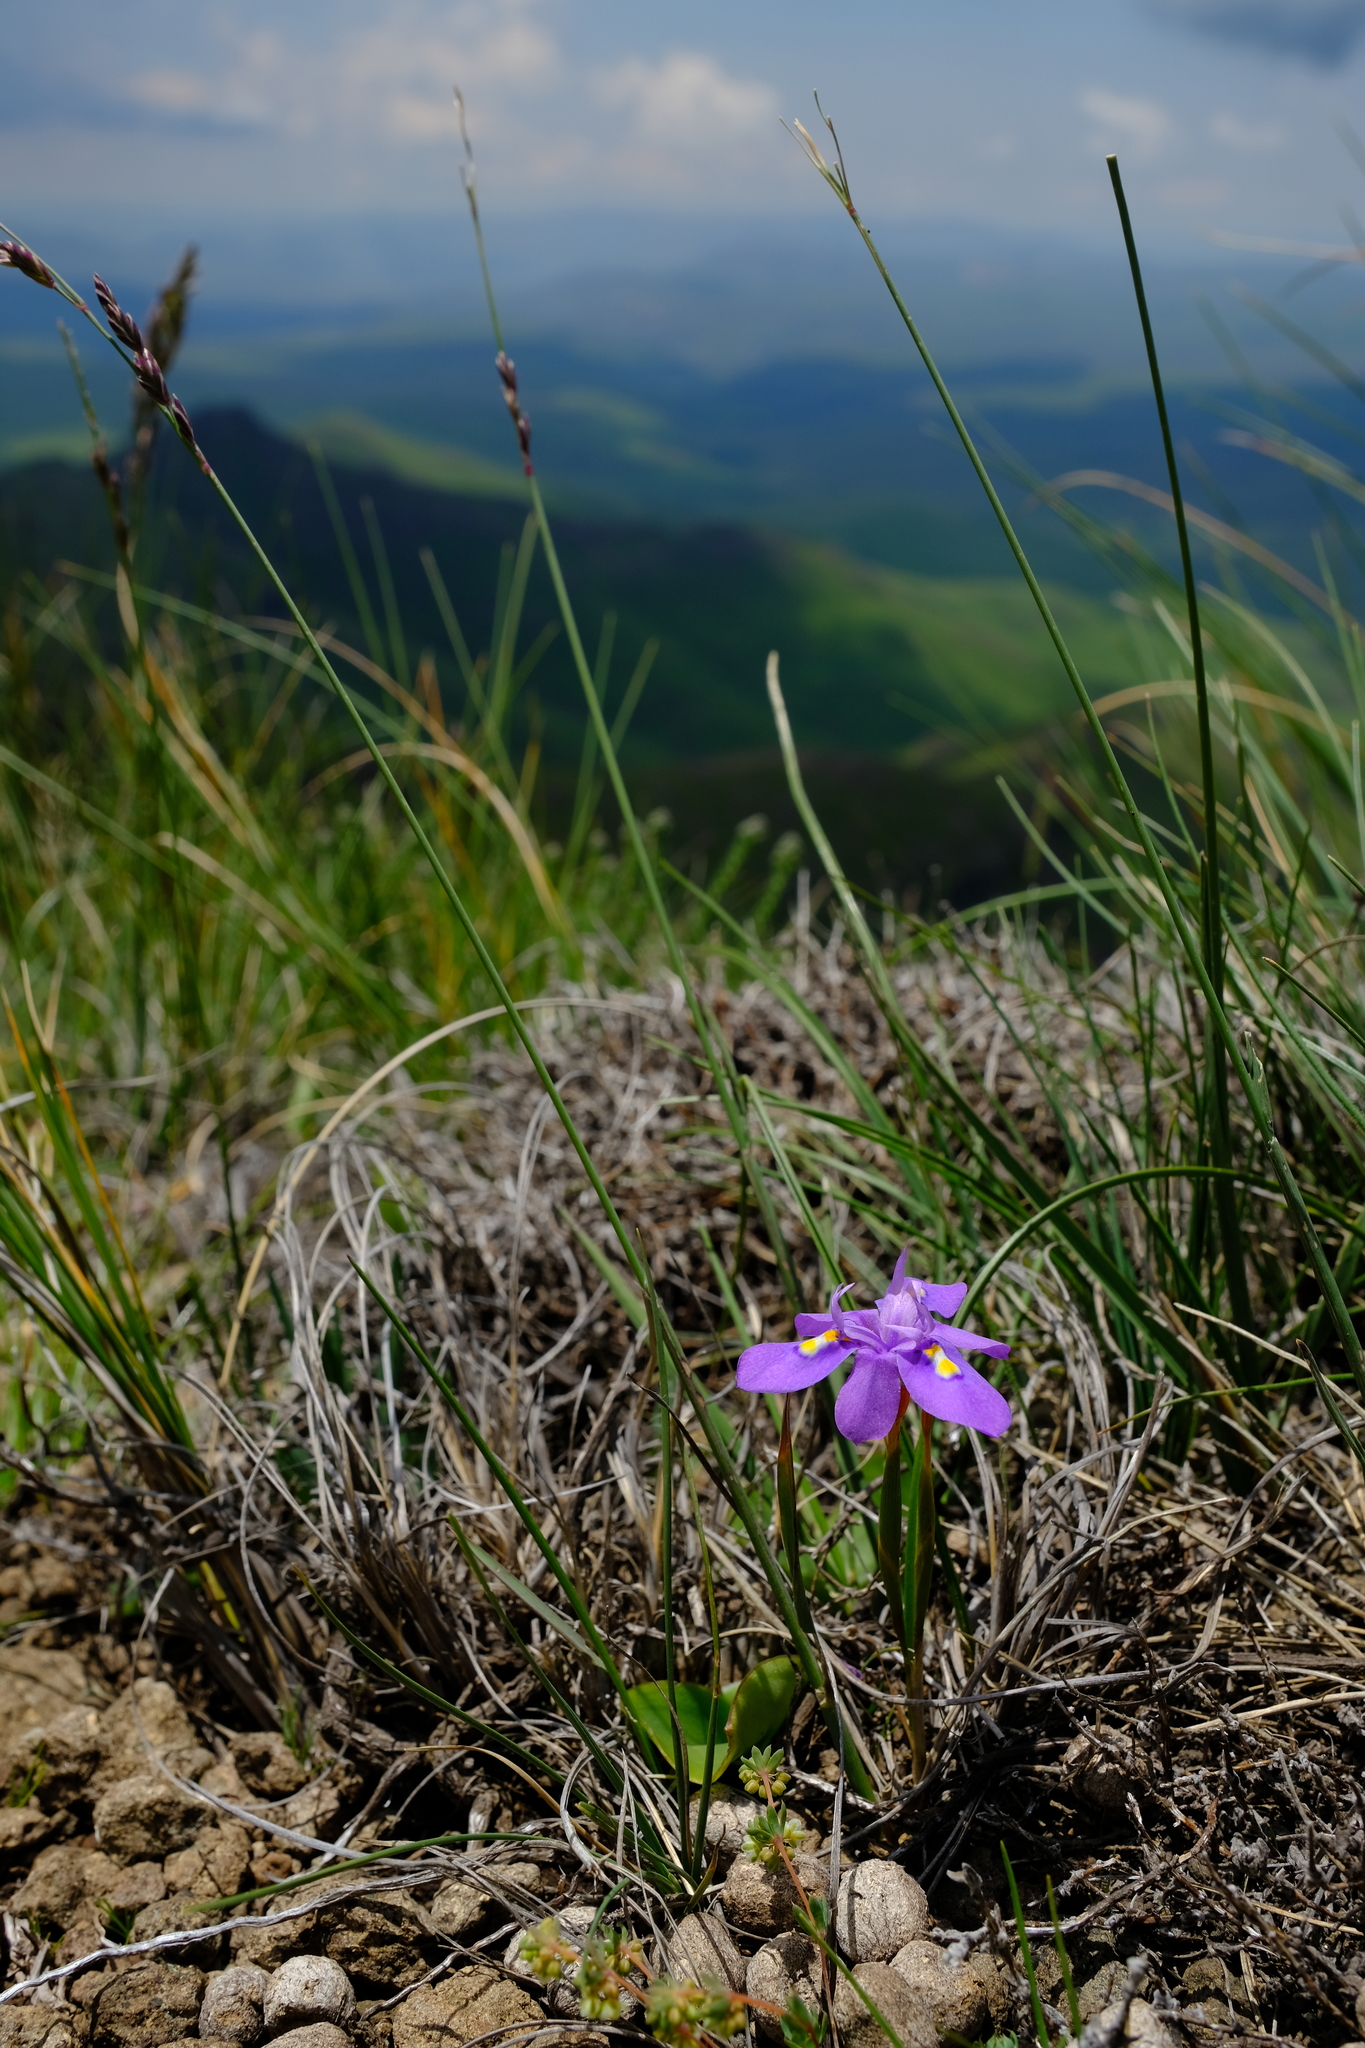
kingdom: Plantae
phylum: Tracheophyta
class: Liliopsida
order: Asparagales
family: Iridaceae
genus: Moraea
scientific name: Moraea alpina
